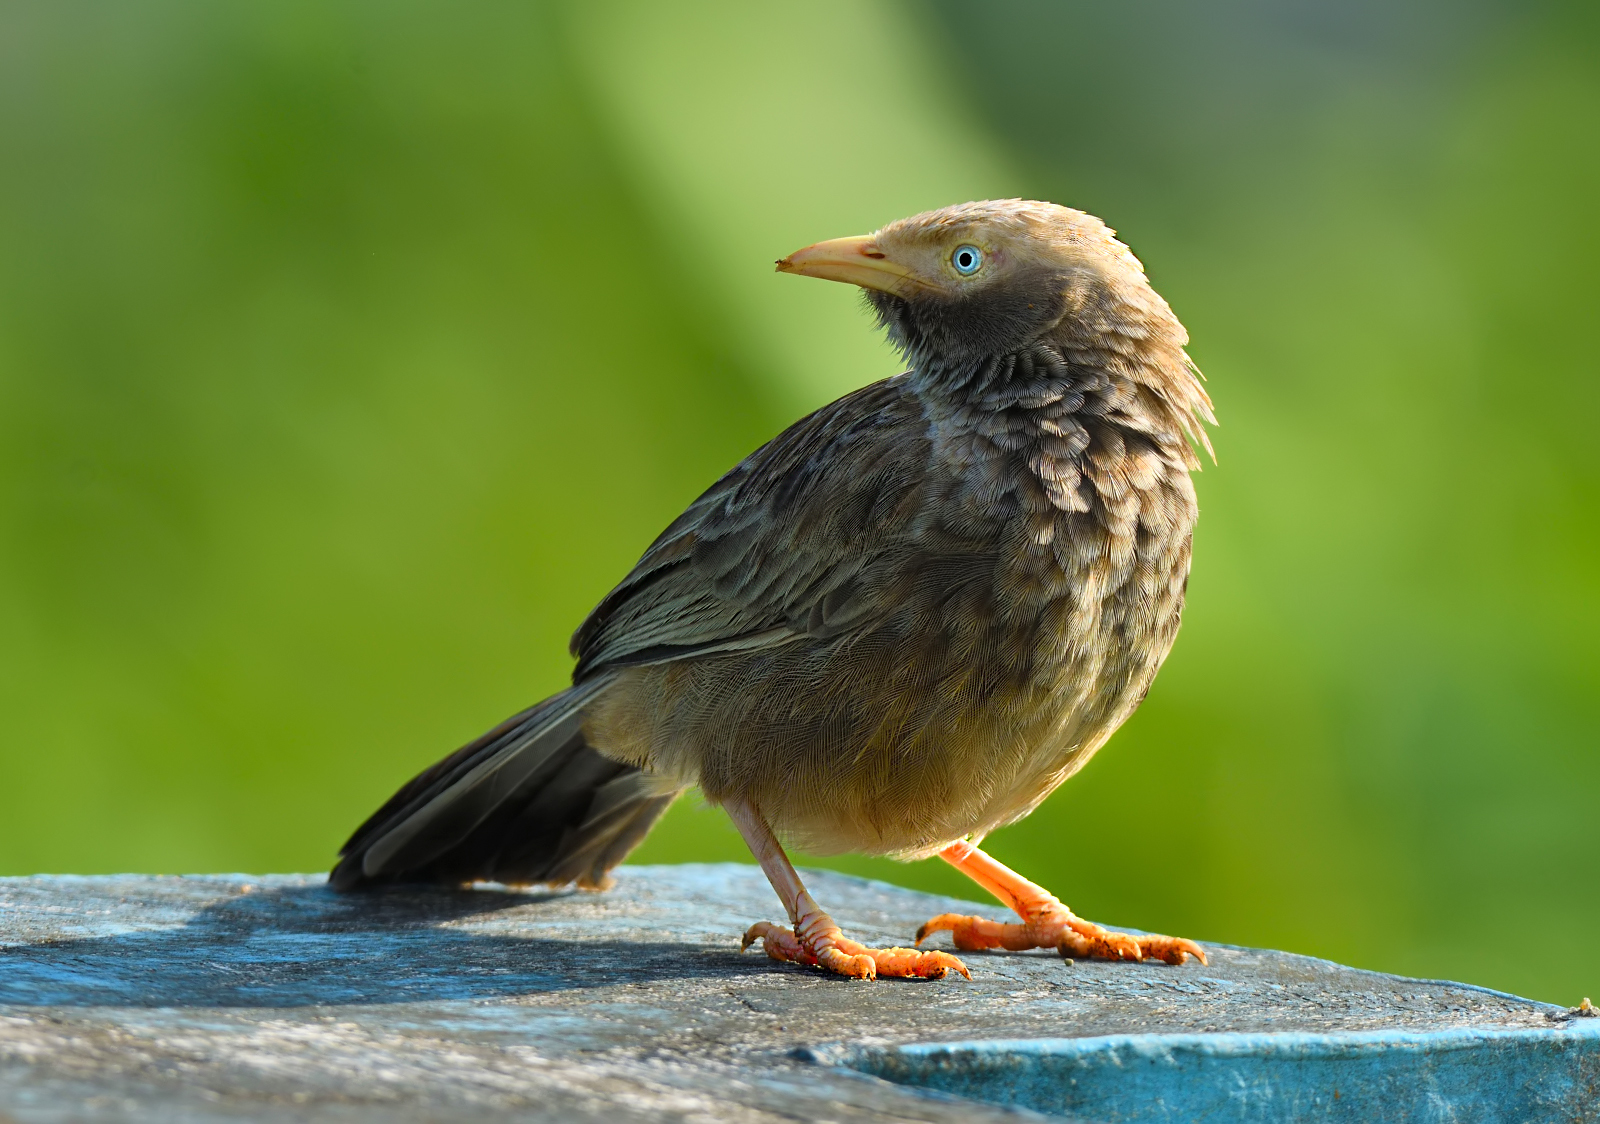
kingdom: Animalia
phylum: Chordata
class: Aves
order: Passeriformes
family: Leiothrichidae
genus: Turdoides
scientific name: Turdoides affinis
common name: Yellow-billed babbler
